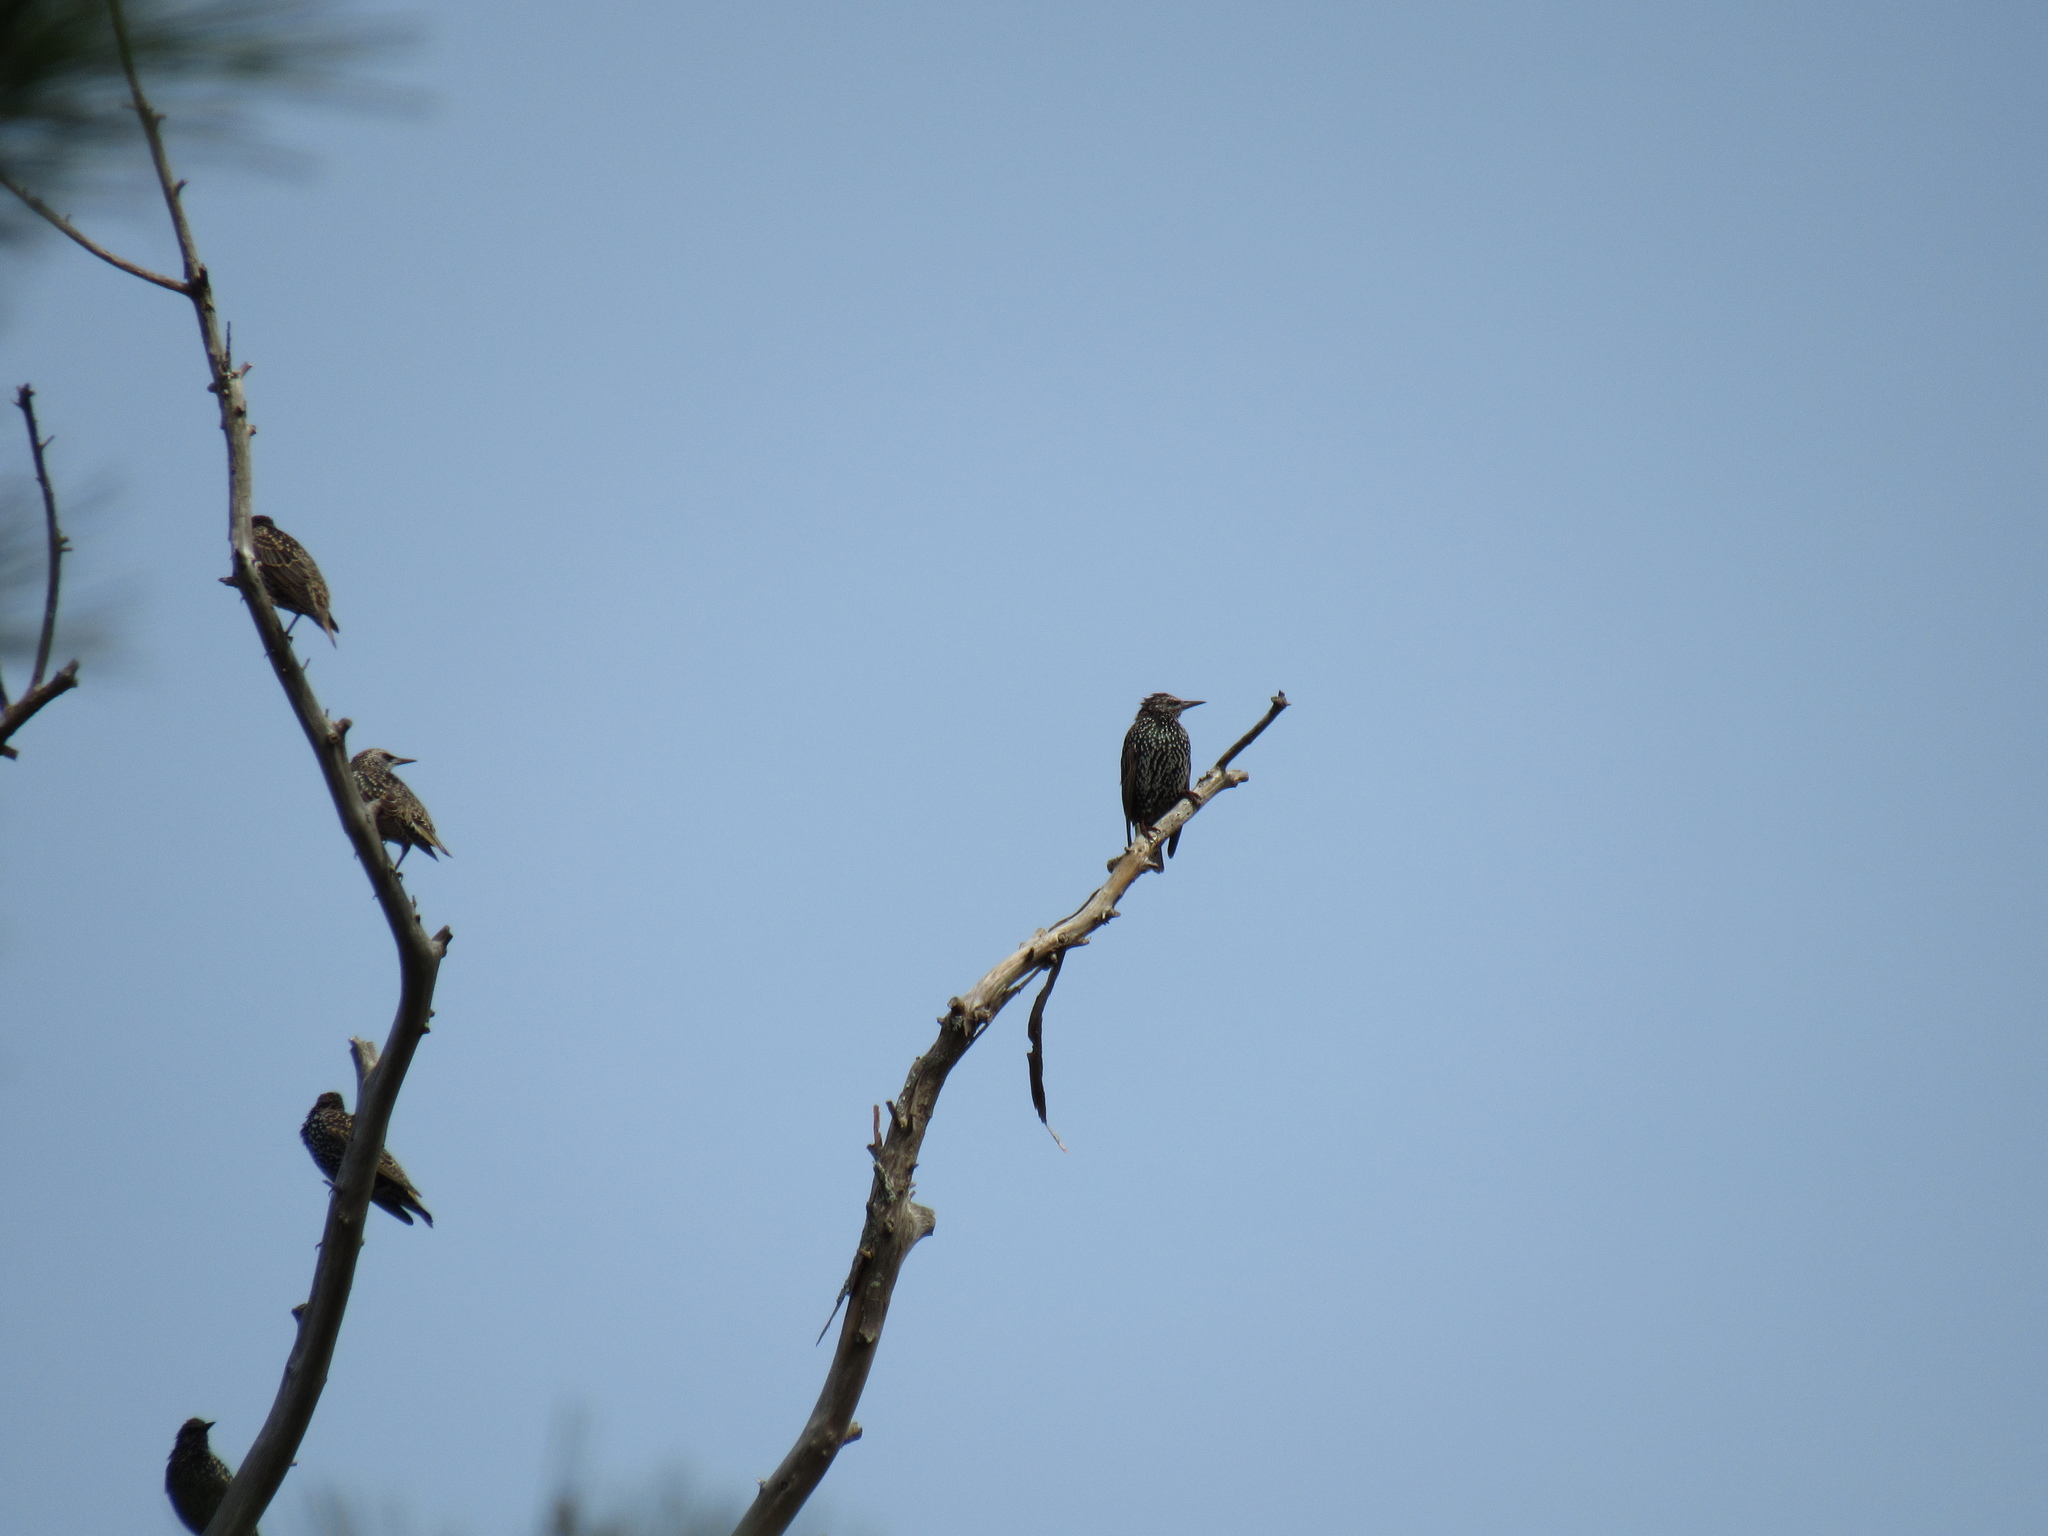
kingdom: Animalia
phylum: Chordata
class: Aves
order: Passeriformes
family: Sturnidae
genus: Sturnus
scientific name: Sturnus vulgaris
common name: Common starling
